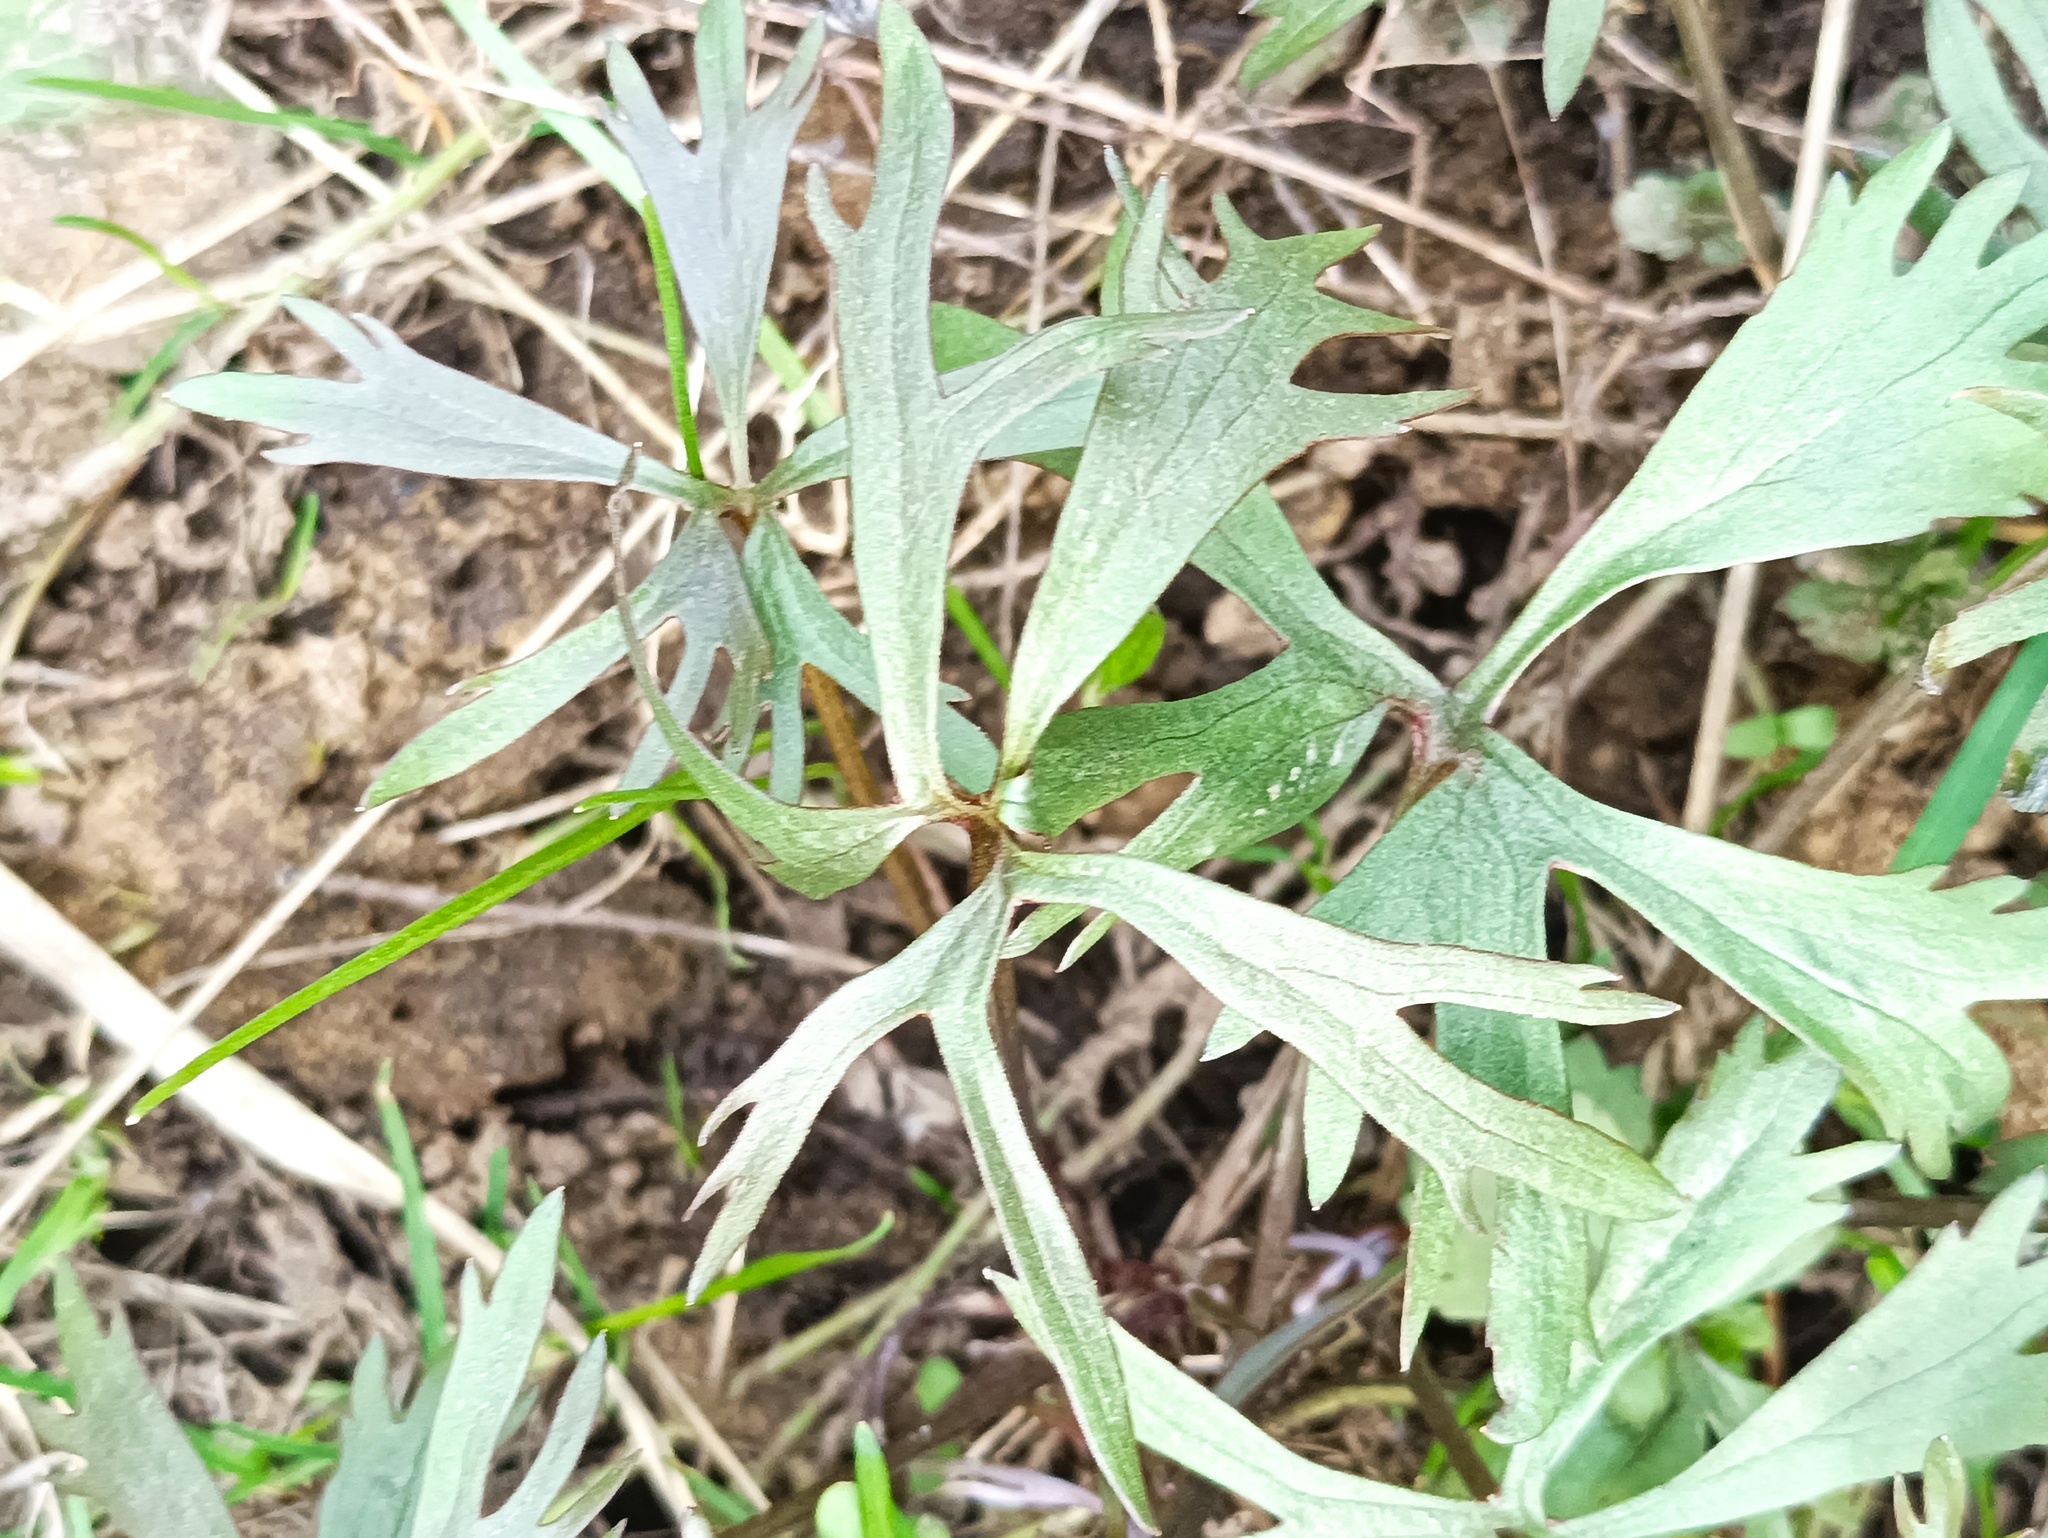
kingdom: Plantae
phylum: Tracheophyta
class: Magnoliopsida
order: Ranunculales
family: Ranunculaceae
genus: Ranunculus
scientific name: Ranunculus auricomus
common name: Goldilocks buttercup
